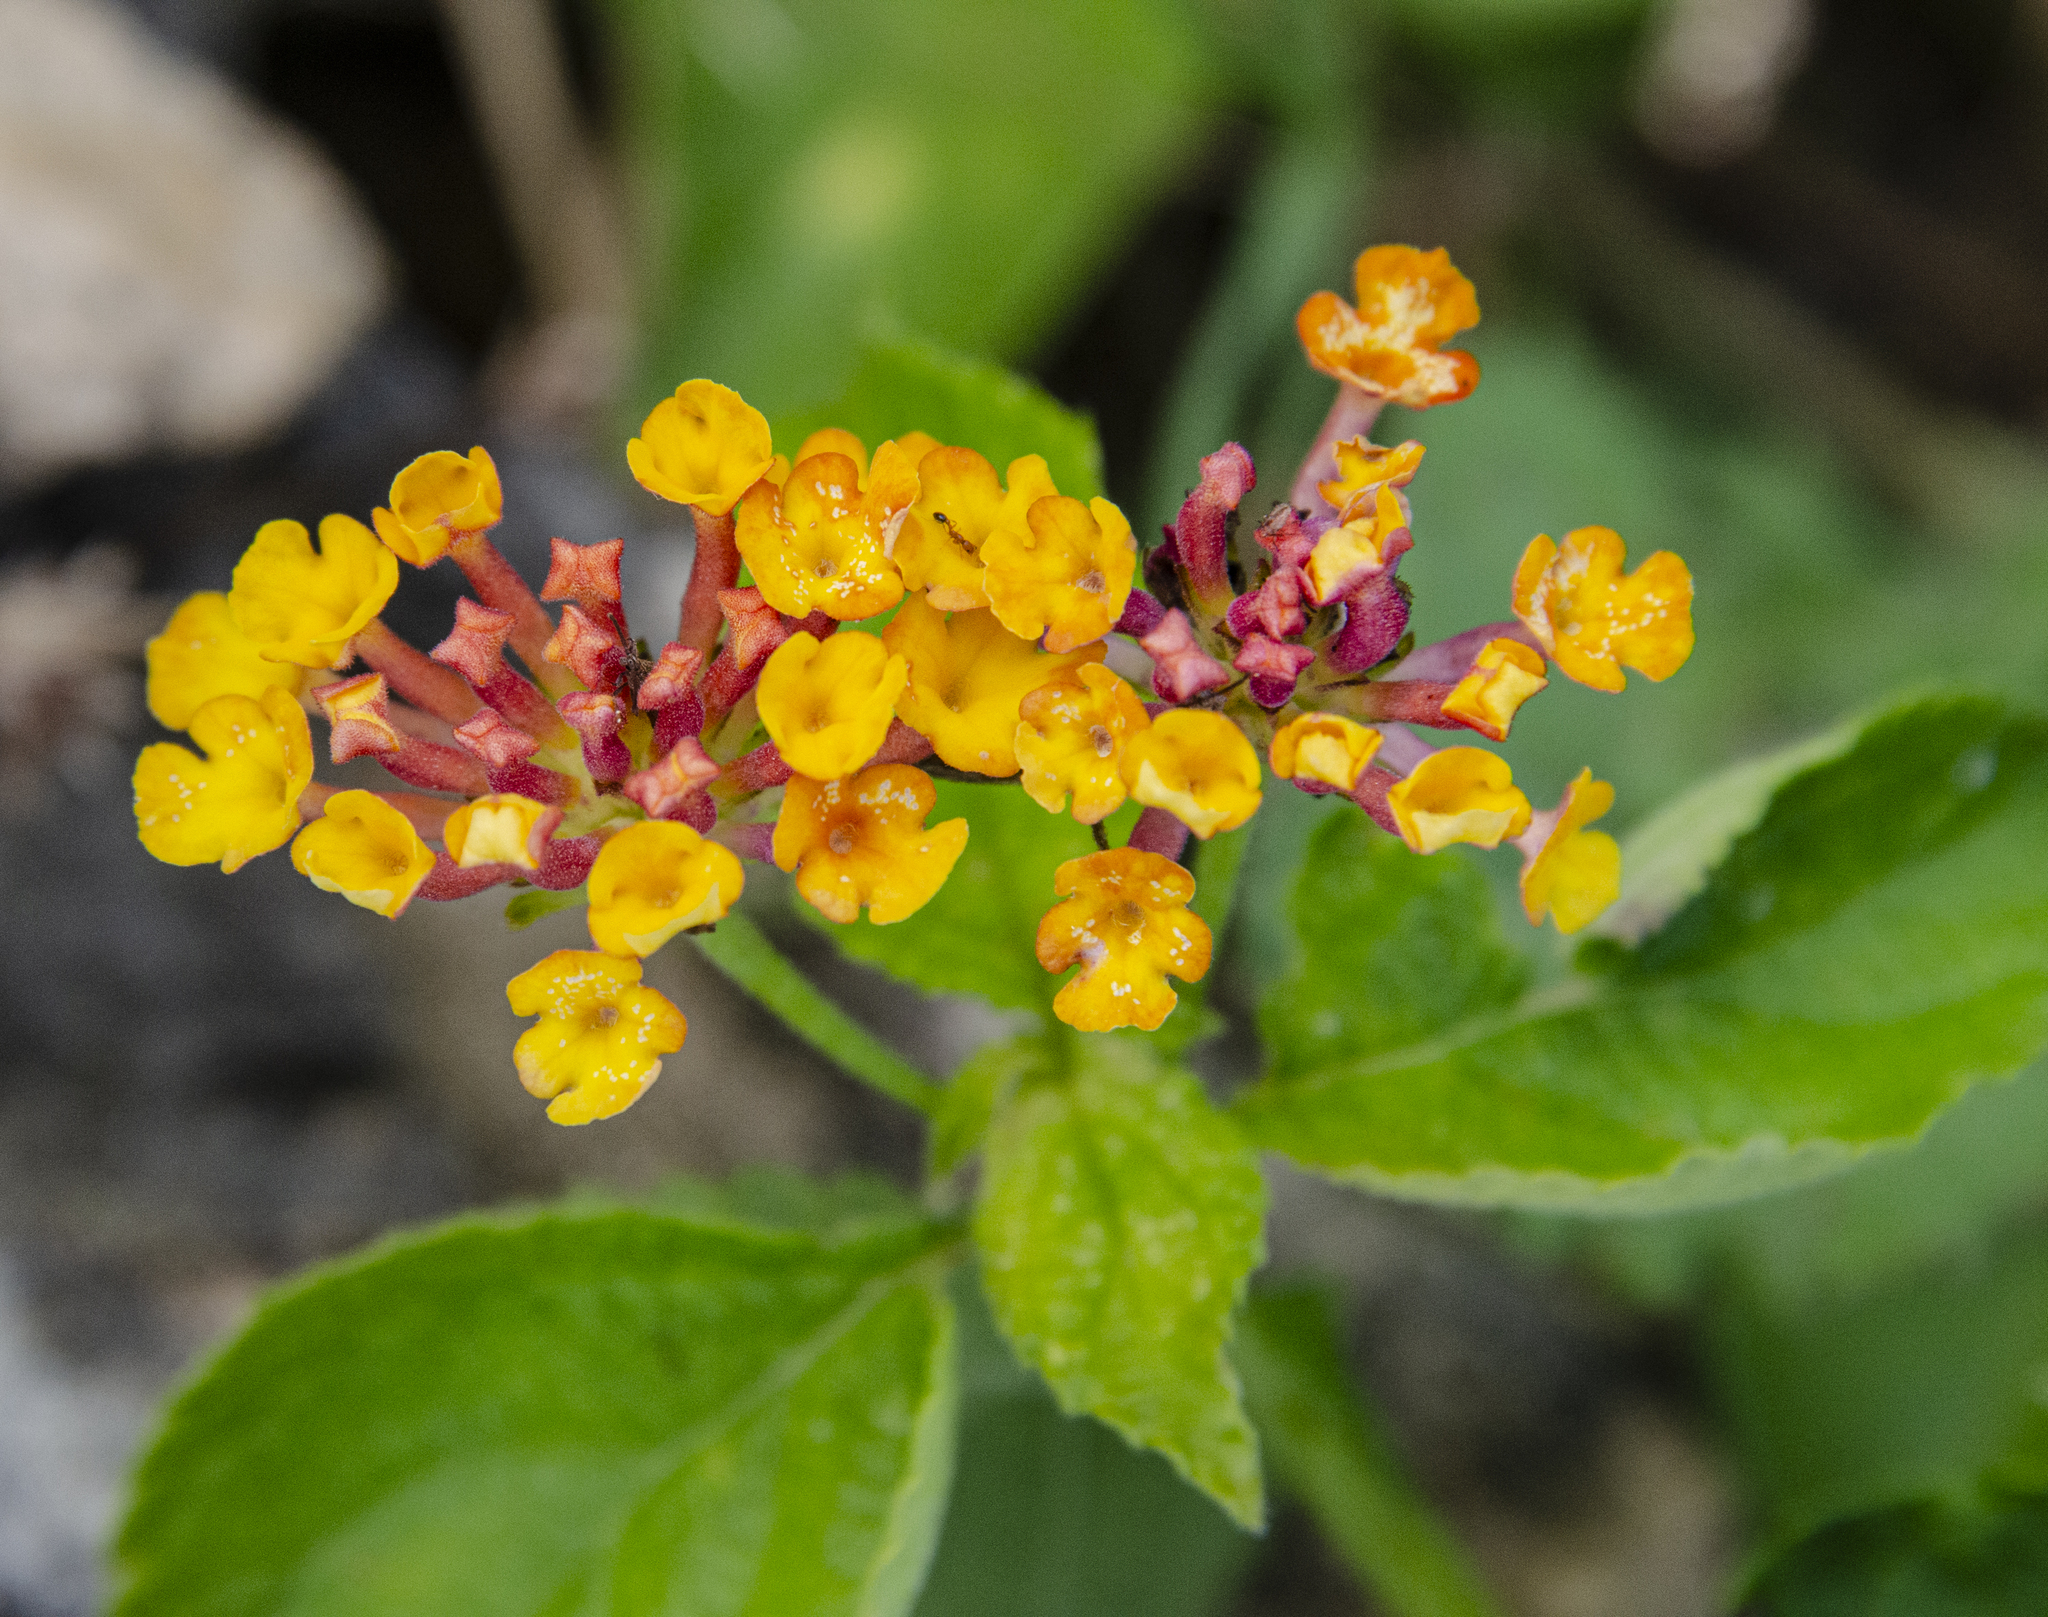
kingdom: Plantae
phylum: Tracheophyta
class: Magnoliopsida
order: Lamiales
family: Verbenaceae
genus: Lantana
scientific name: Lantana camara
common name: Lantana
